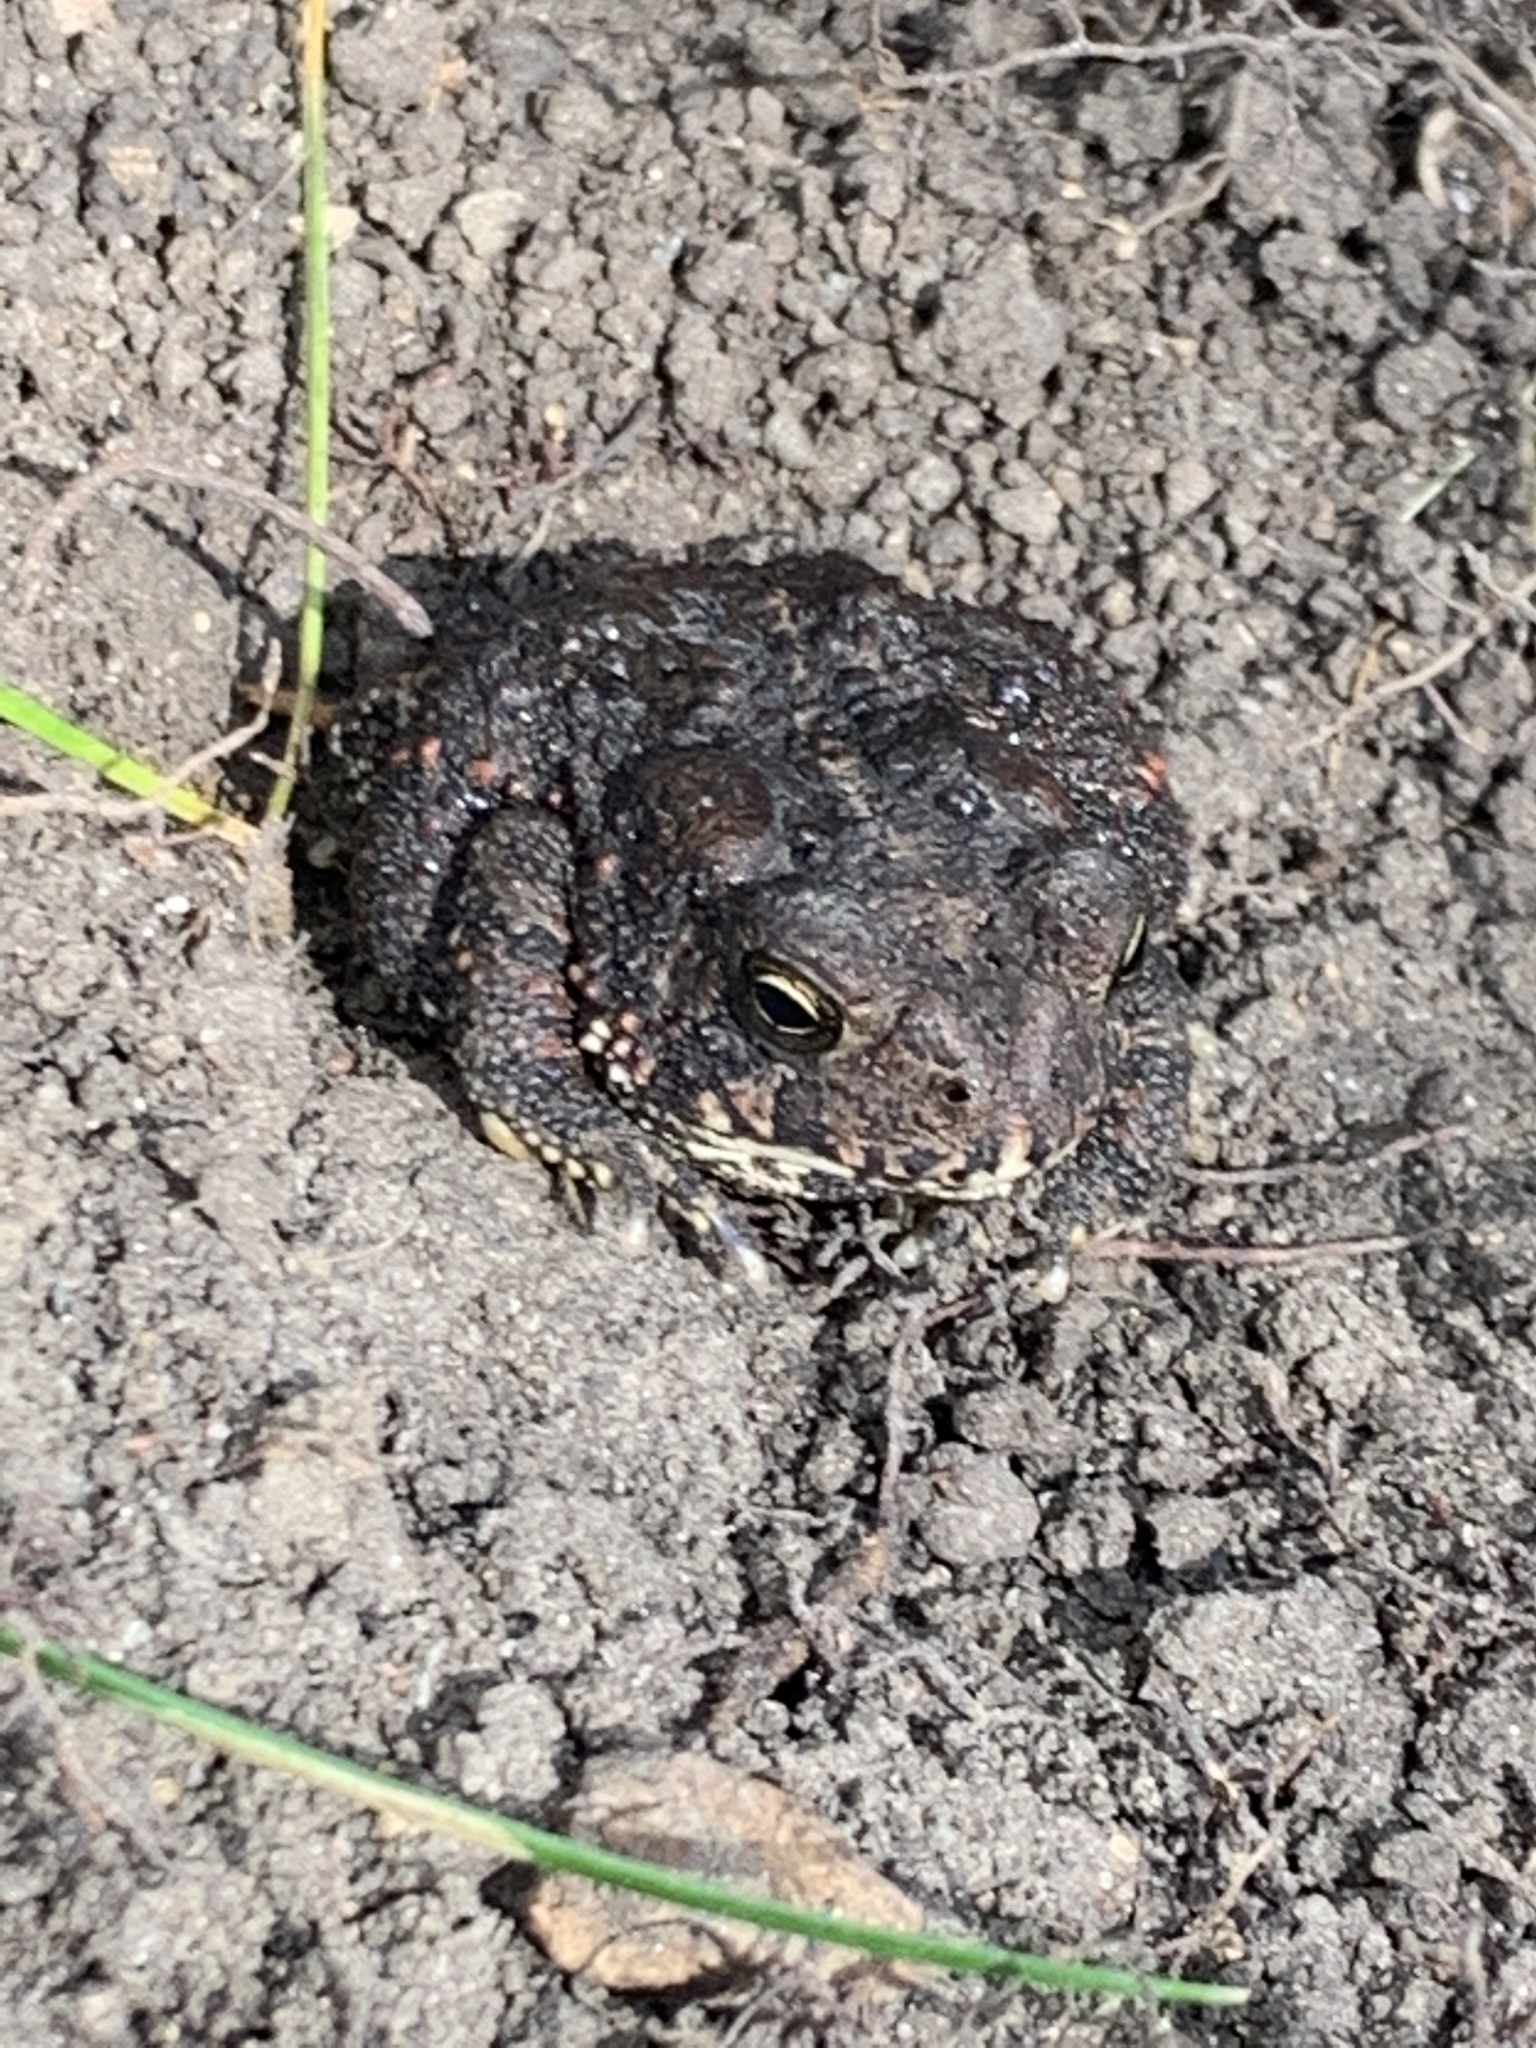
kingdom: Animalia
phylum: Chordata
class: Amphibia
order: Anura
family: Bufonidae
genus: Anaxyrus
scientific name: Anaxyrus americanus
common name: American toad
